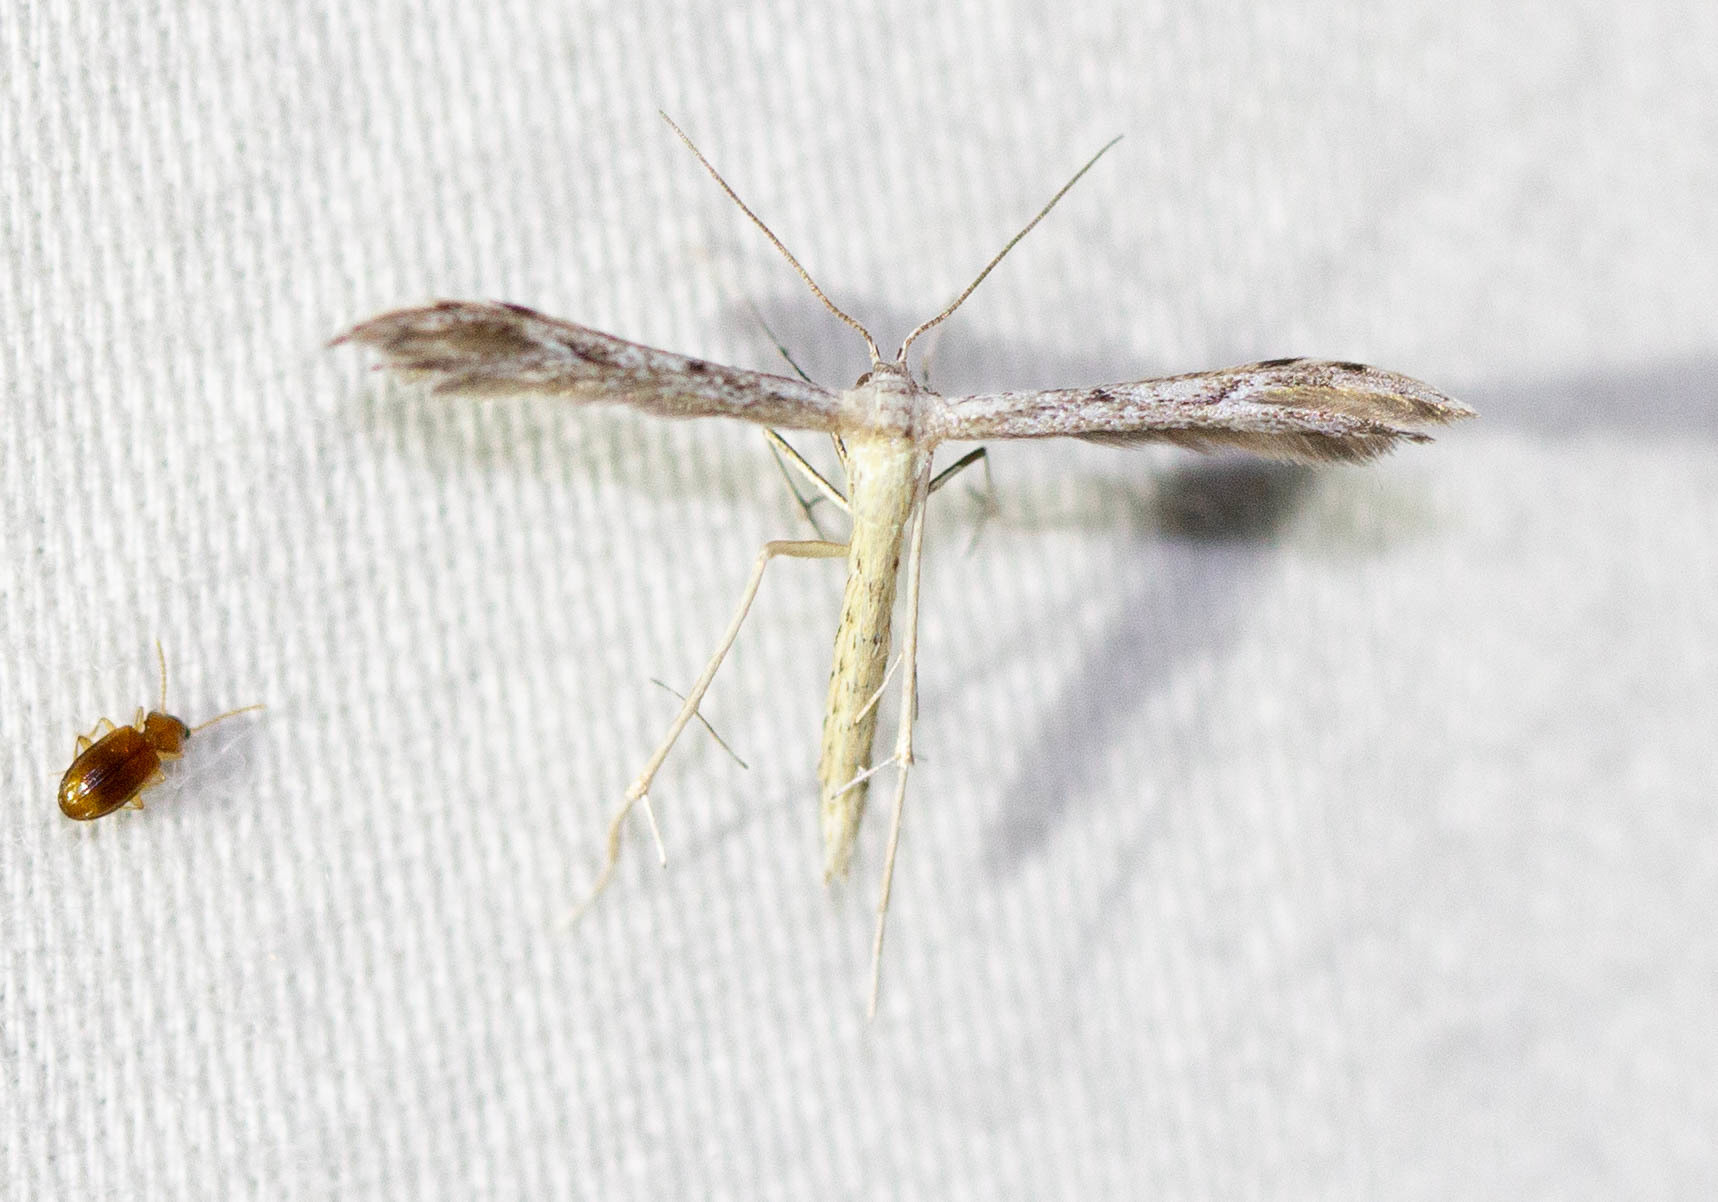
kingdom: Animalia
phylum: Arthropoda
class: Insecta
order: Lepidoptera
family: Pterophoridae
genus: Pselnophorus
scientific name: Pselnophorus belfragei
